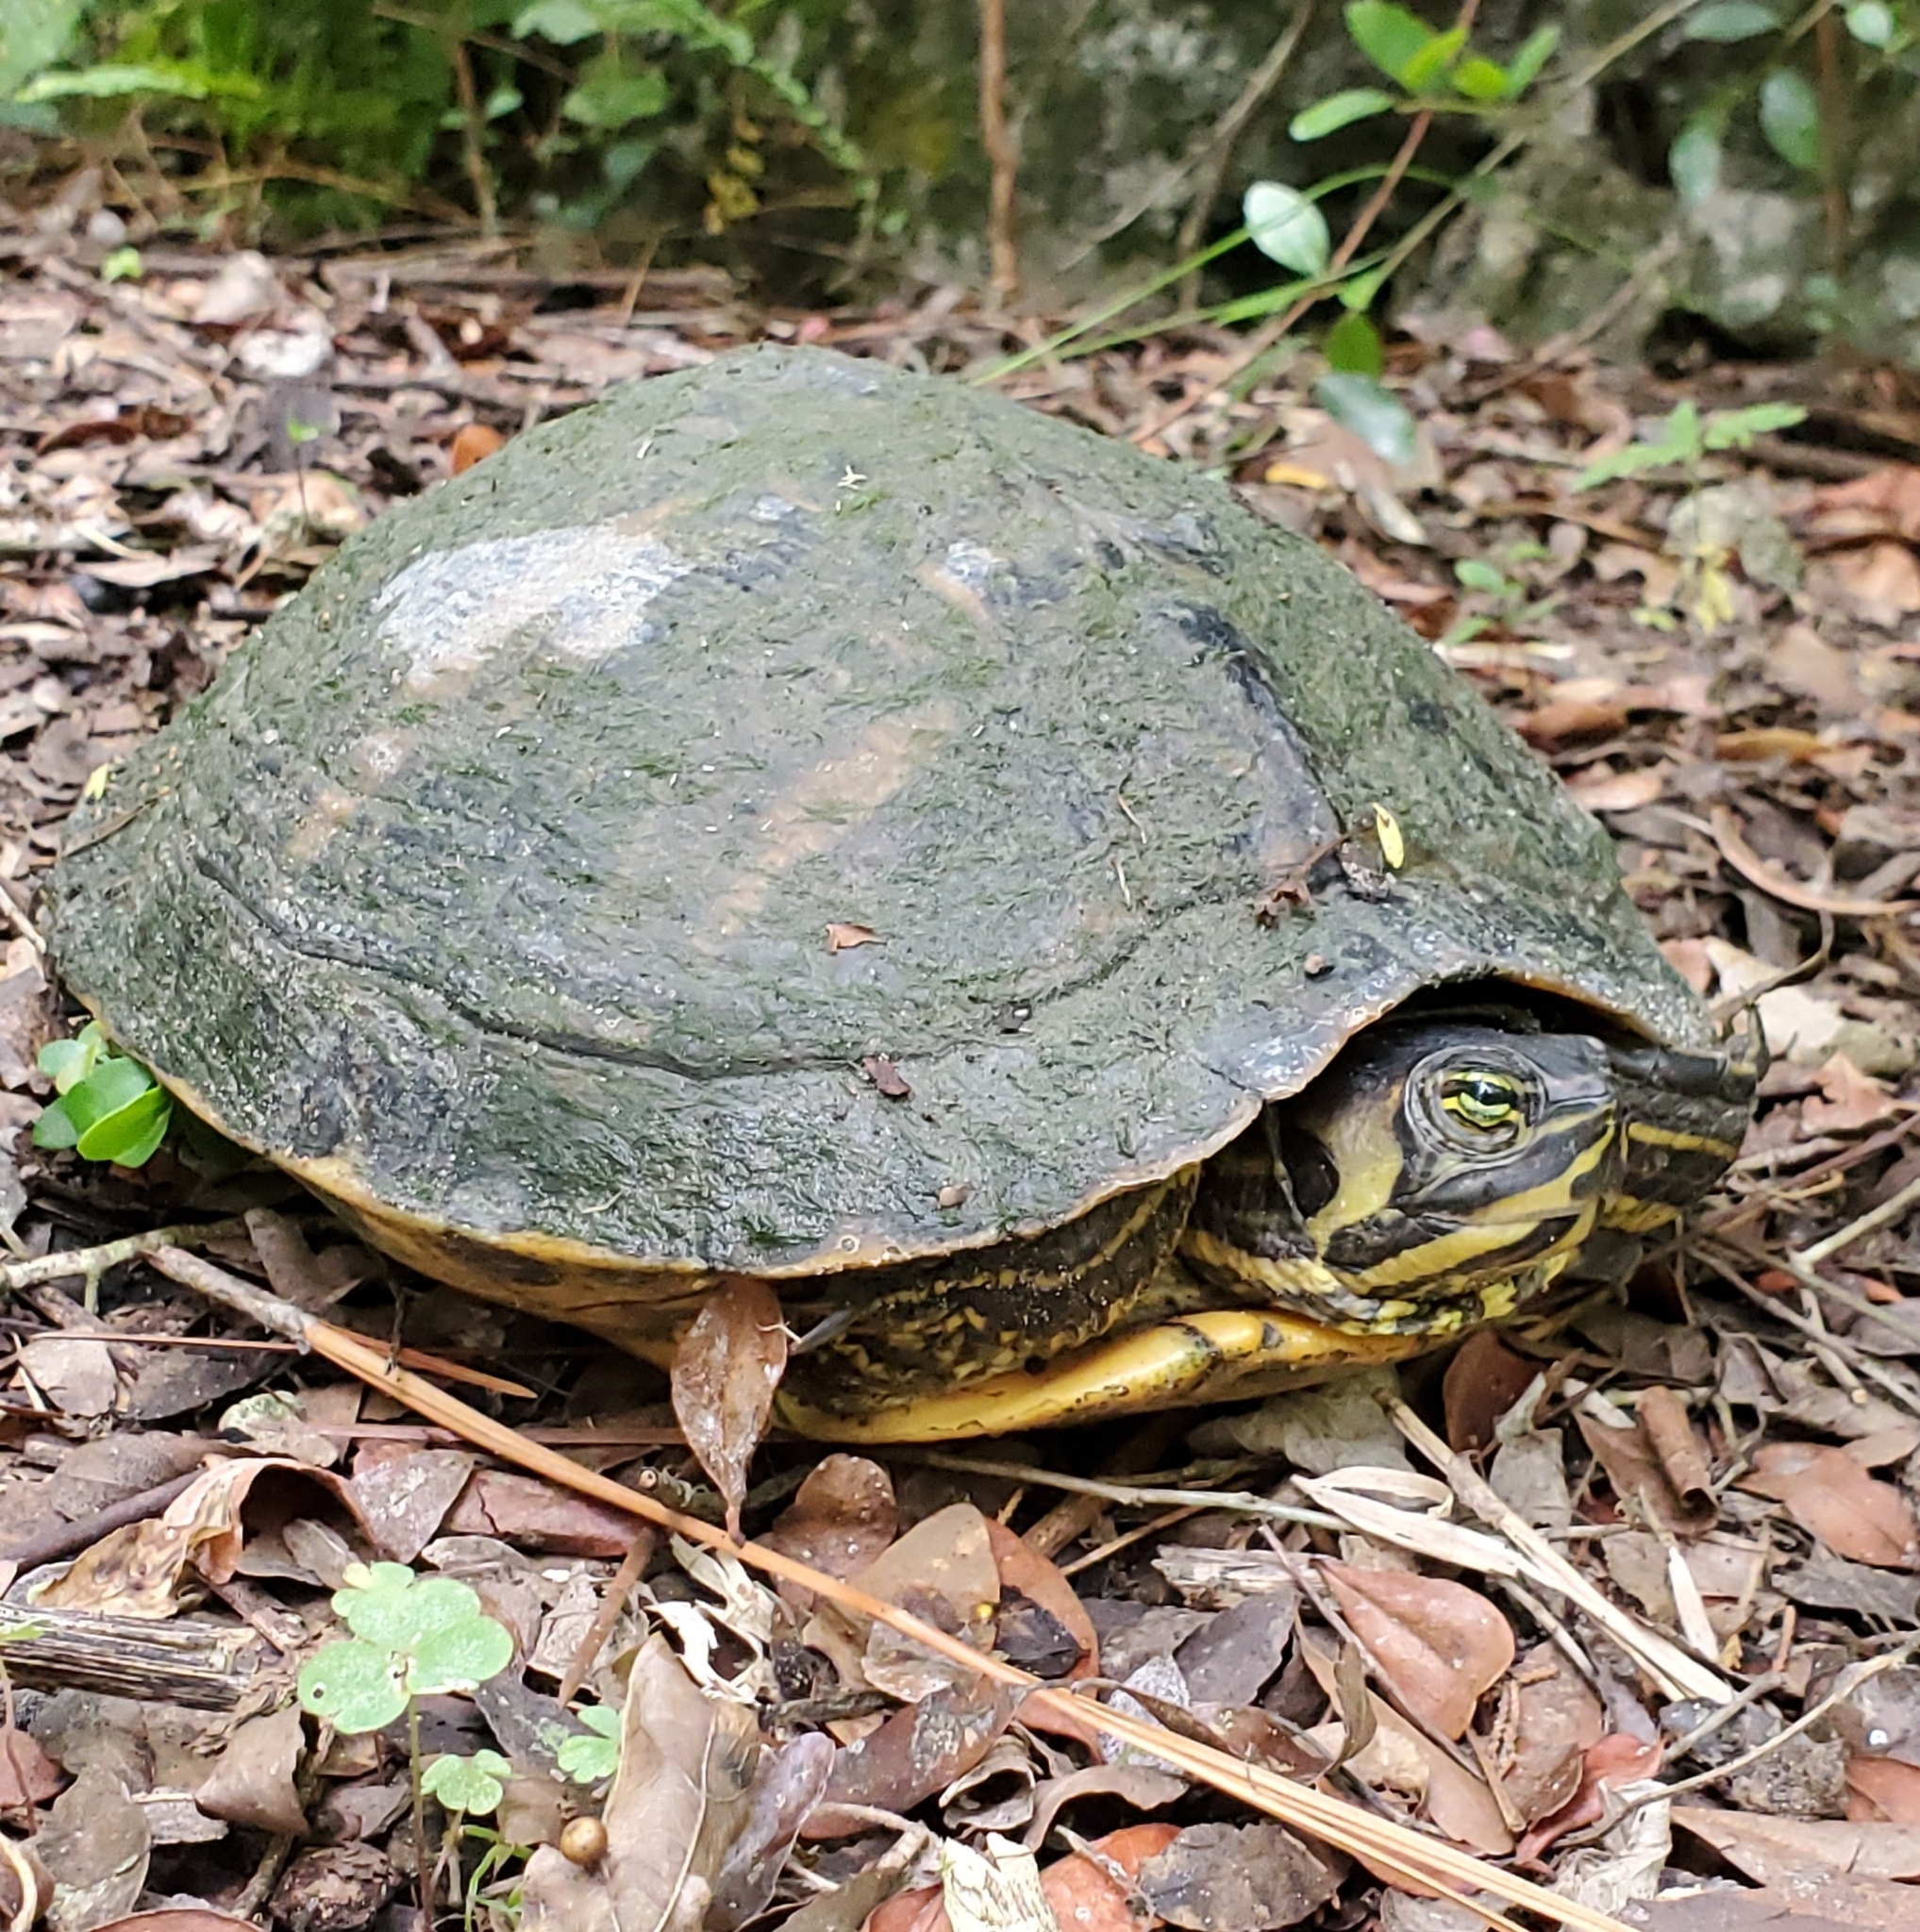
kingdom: Animalia
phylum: Chordata
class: Testudines
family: Emydidae
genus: Trachemys
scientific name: Trachemys scripta
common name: Slider
